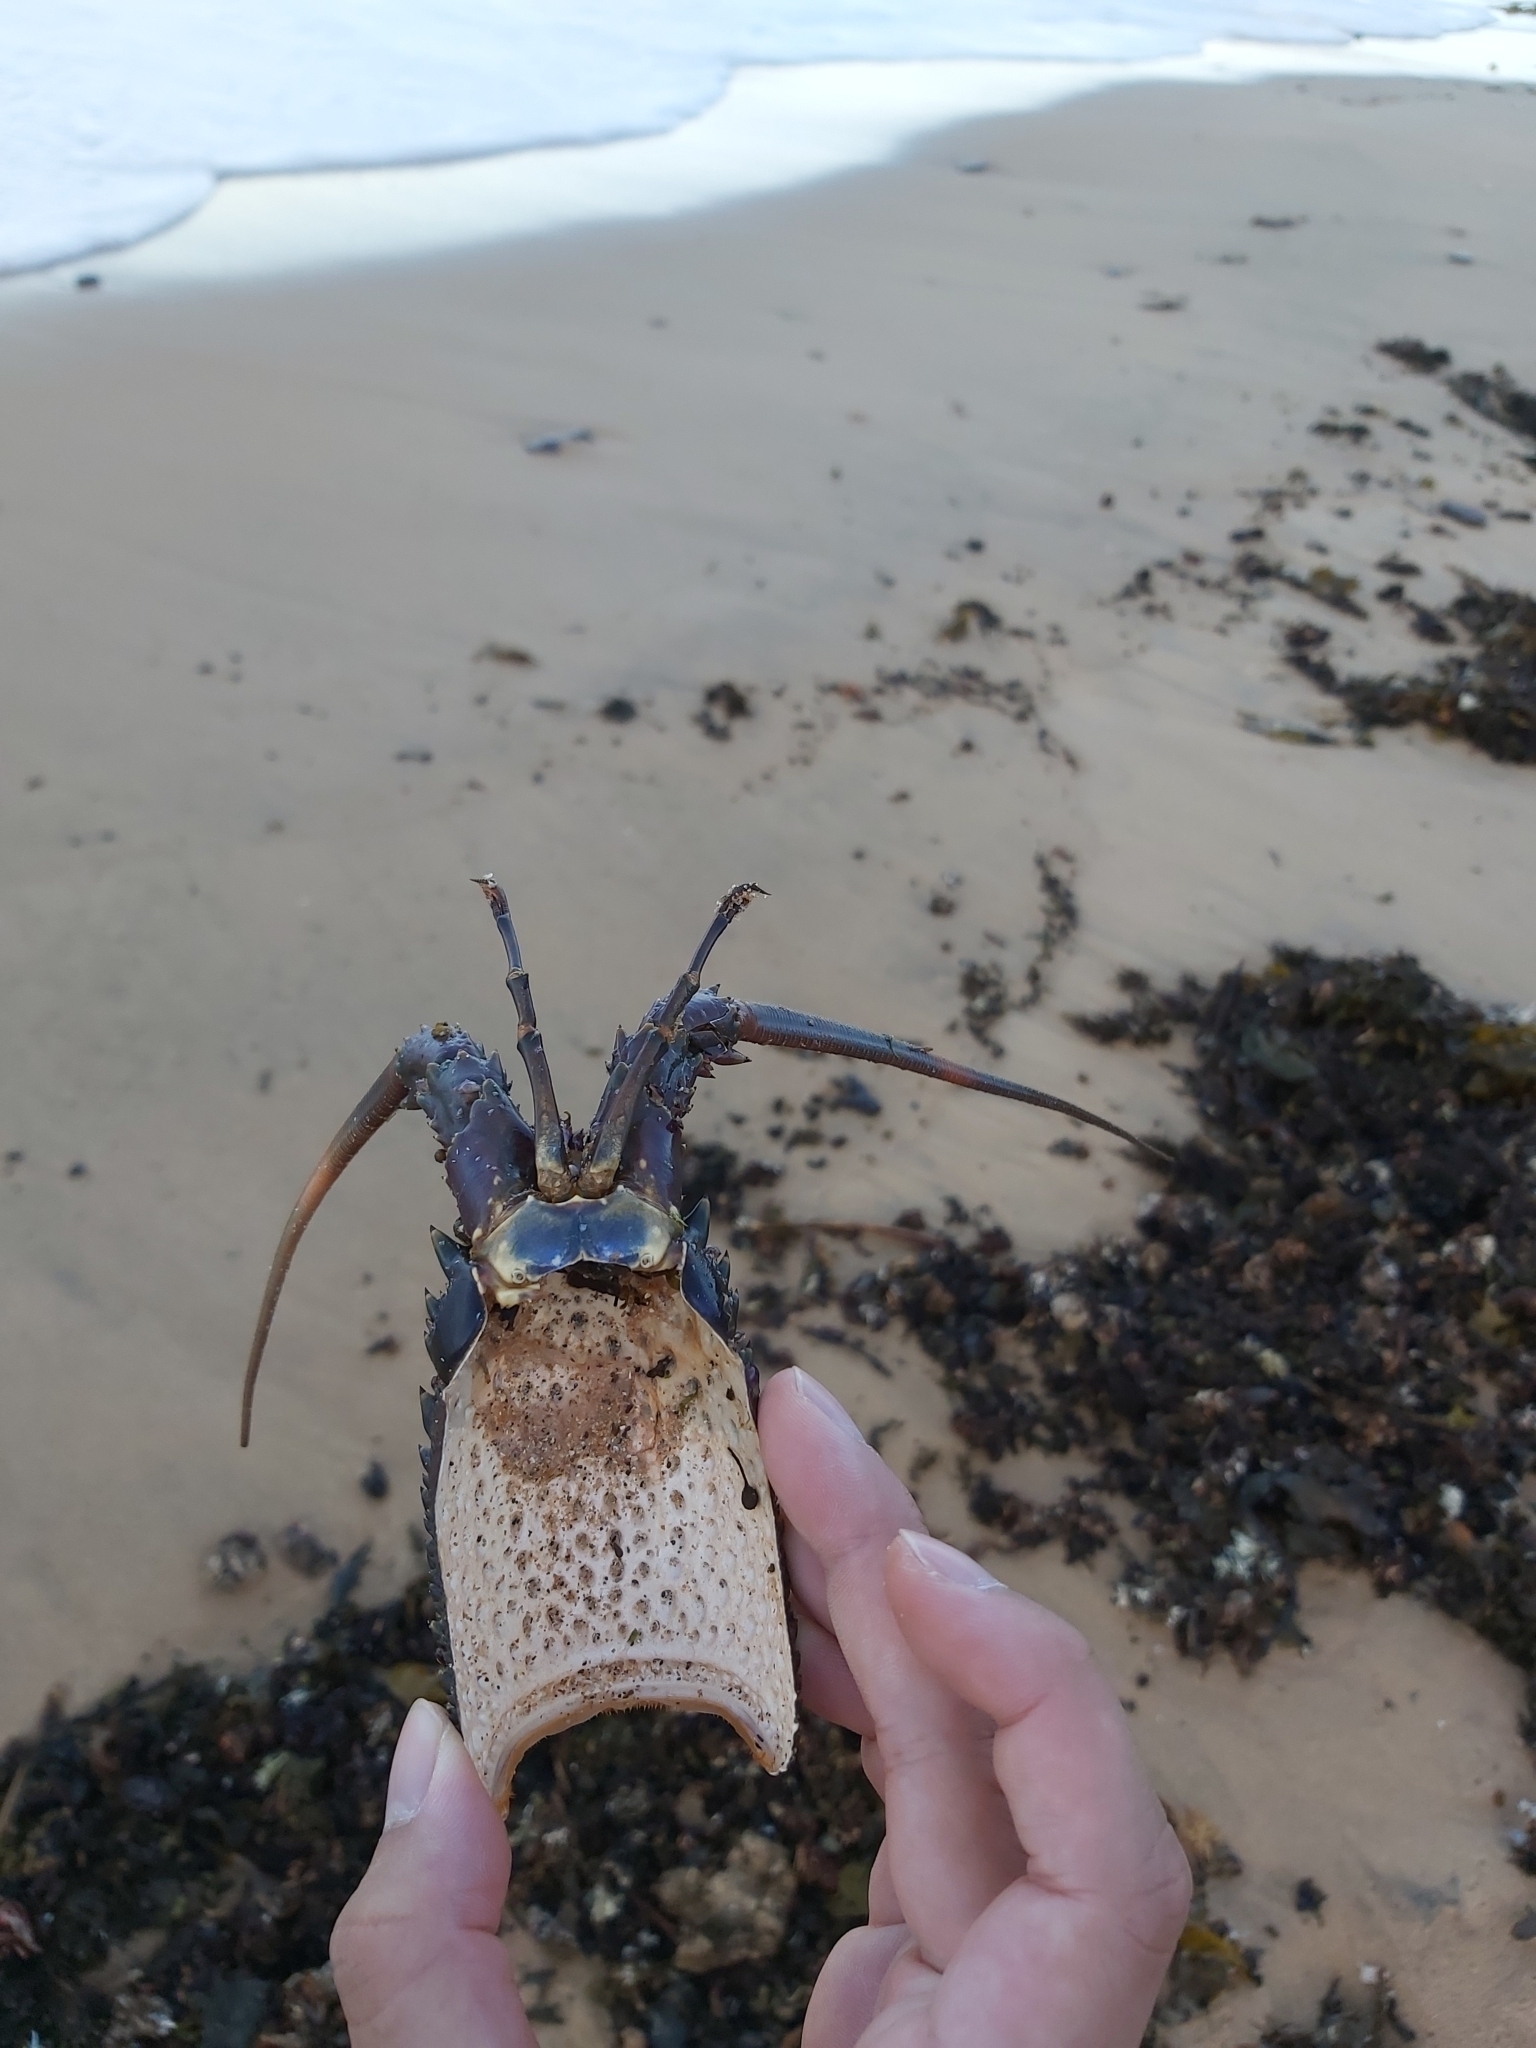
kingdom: Animalia
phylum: Arthropoda
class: Malacostraca
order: Decapoda
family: Palinuridae
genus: Sagmariasus
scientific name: Sagmariasus verreauxi
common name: Green rock lobster
